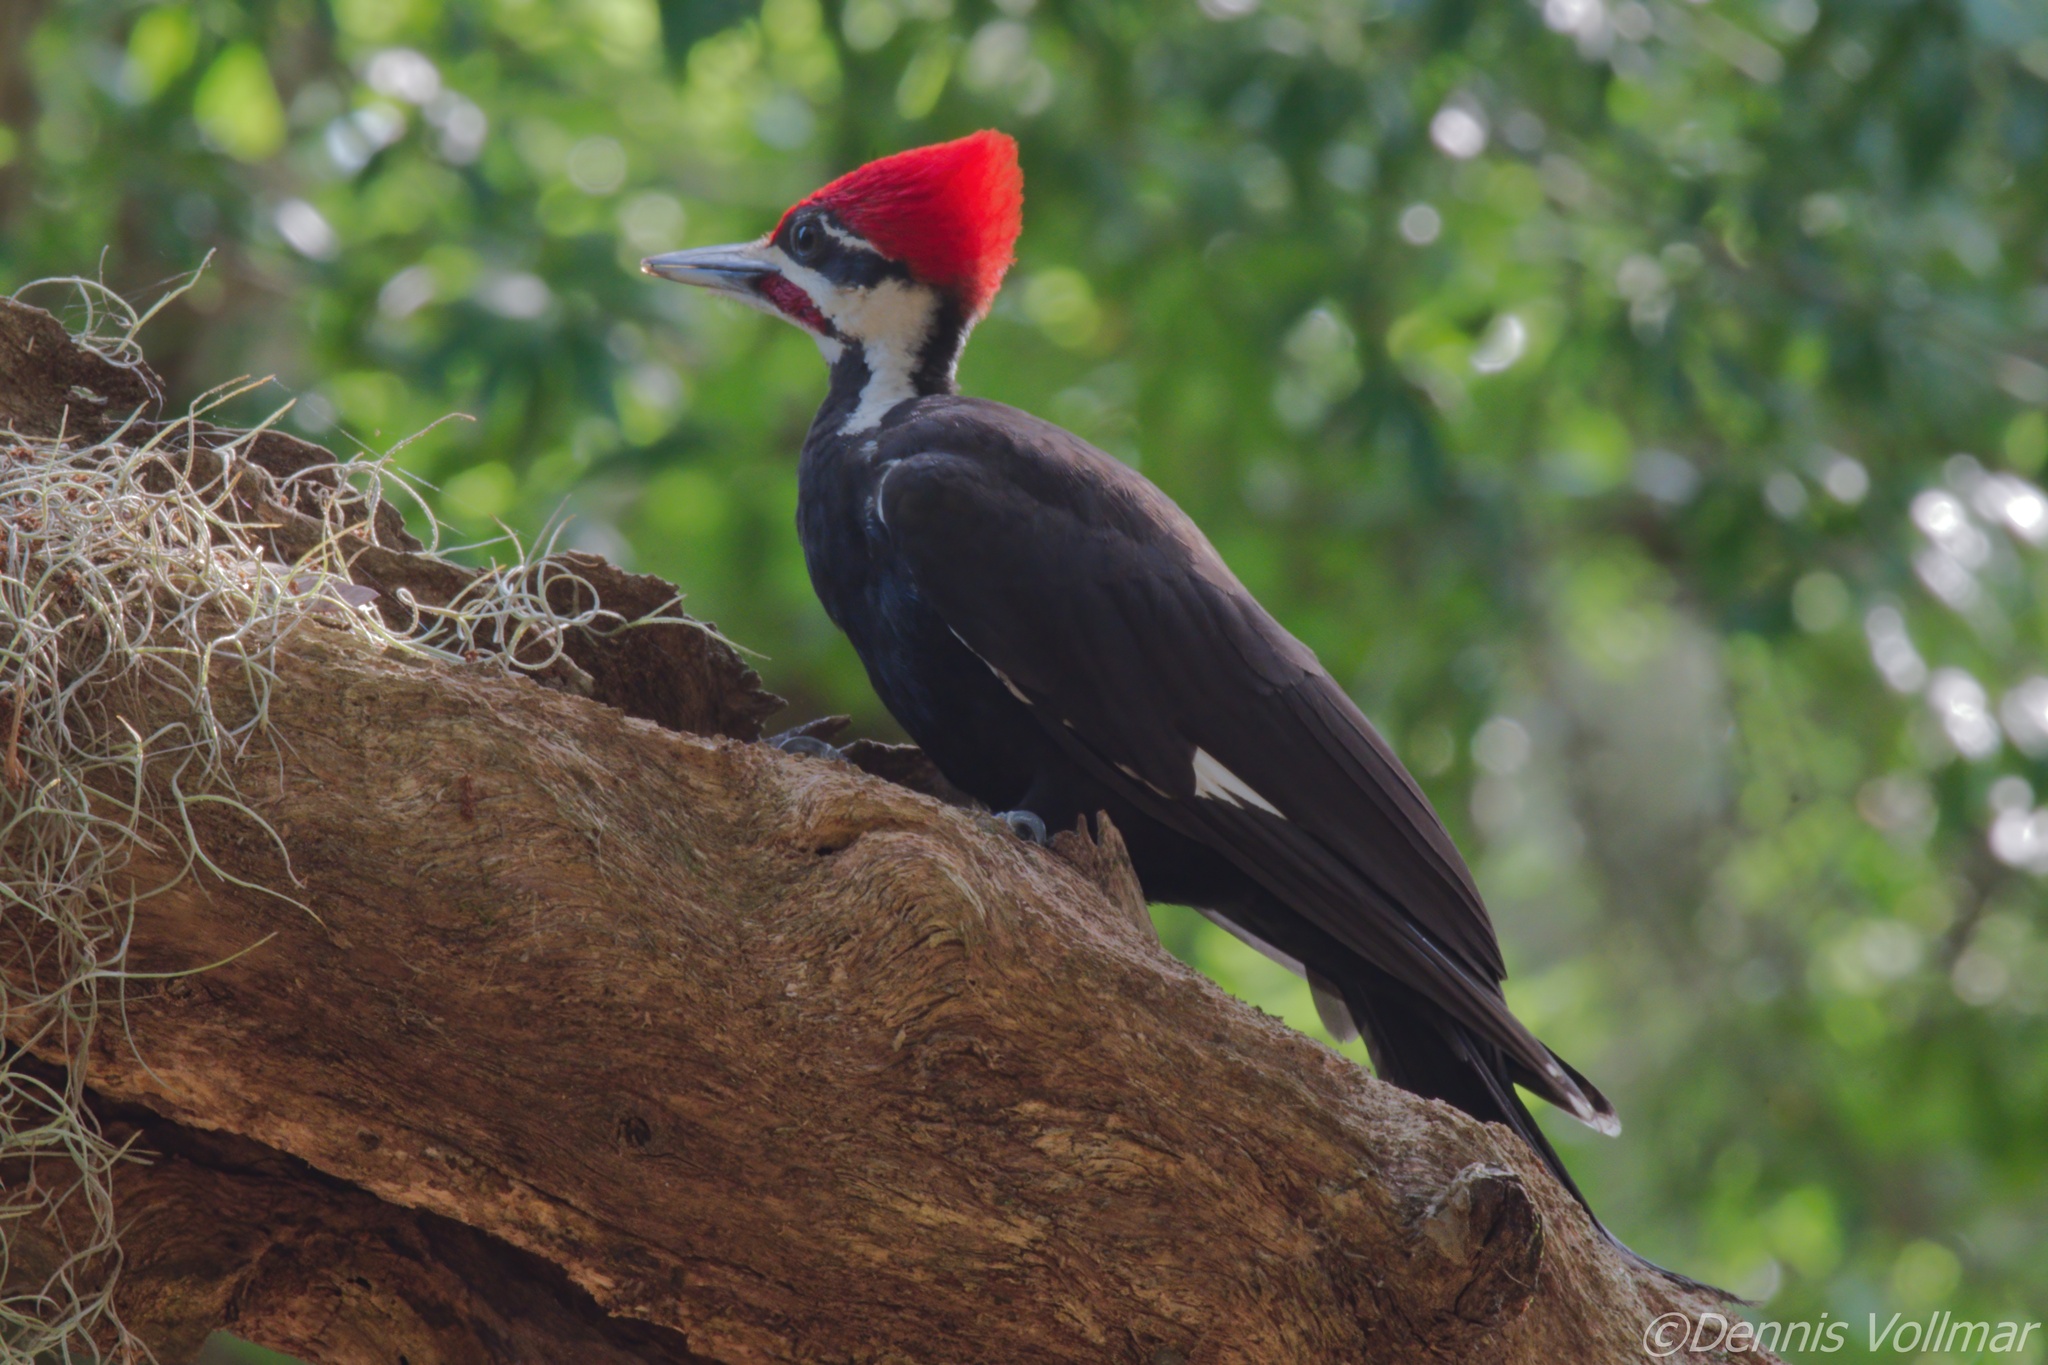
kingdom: Animalia
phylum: Chordata
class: Aves
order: Piciformes
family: Picidae
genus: Dryocopus
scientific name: Dryocopus pileatus
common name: Pileated woodpecker
